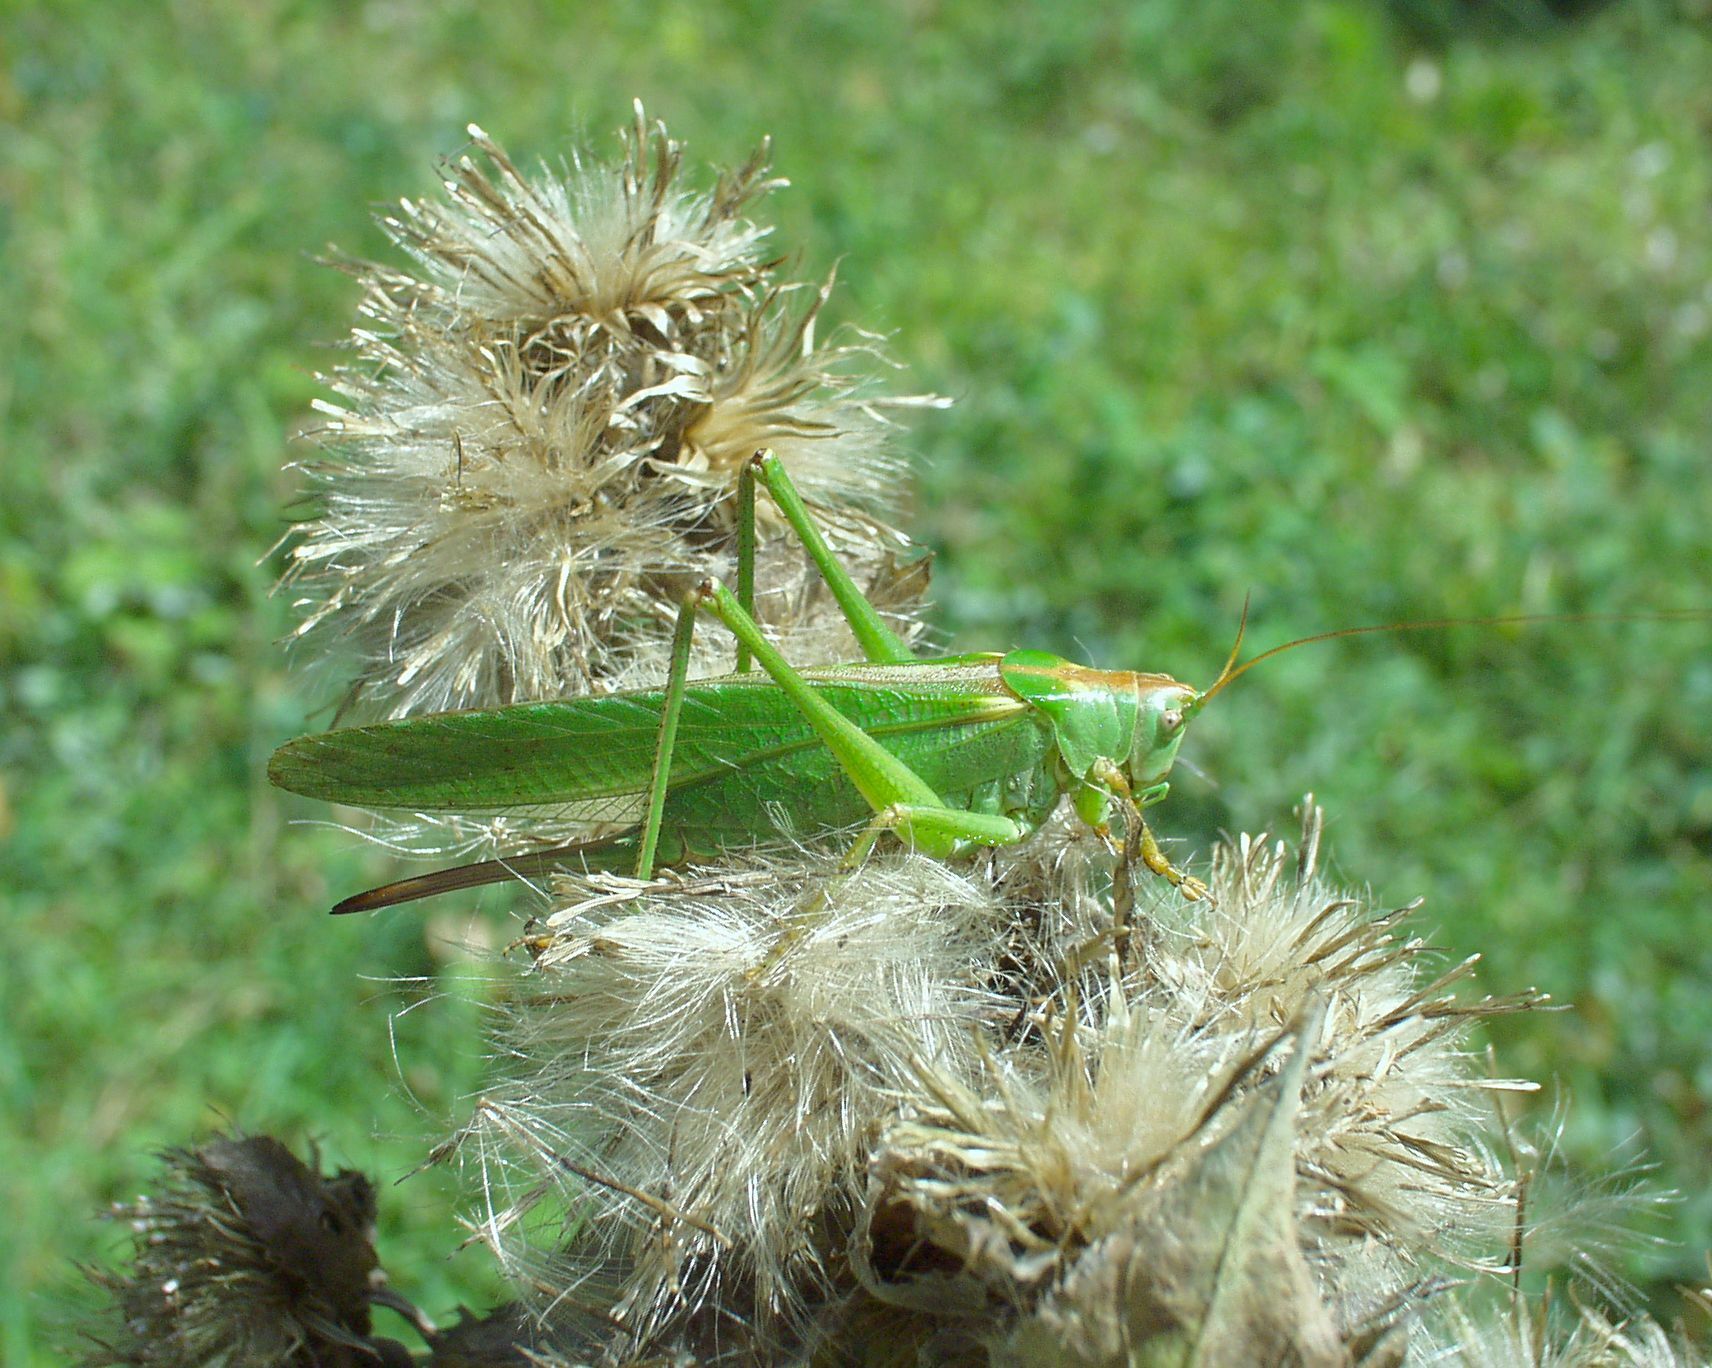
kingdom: Animalia
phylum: Arthropoda
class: Insecta
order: Orthoptera
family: Tettigoniidae
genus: Tettigonia
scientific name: Tettigonia viridissima
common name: Great green bush-cricket
